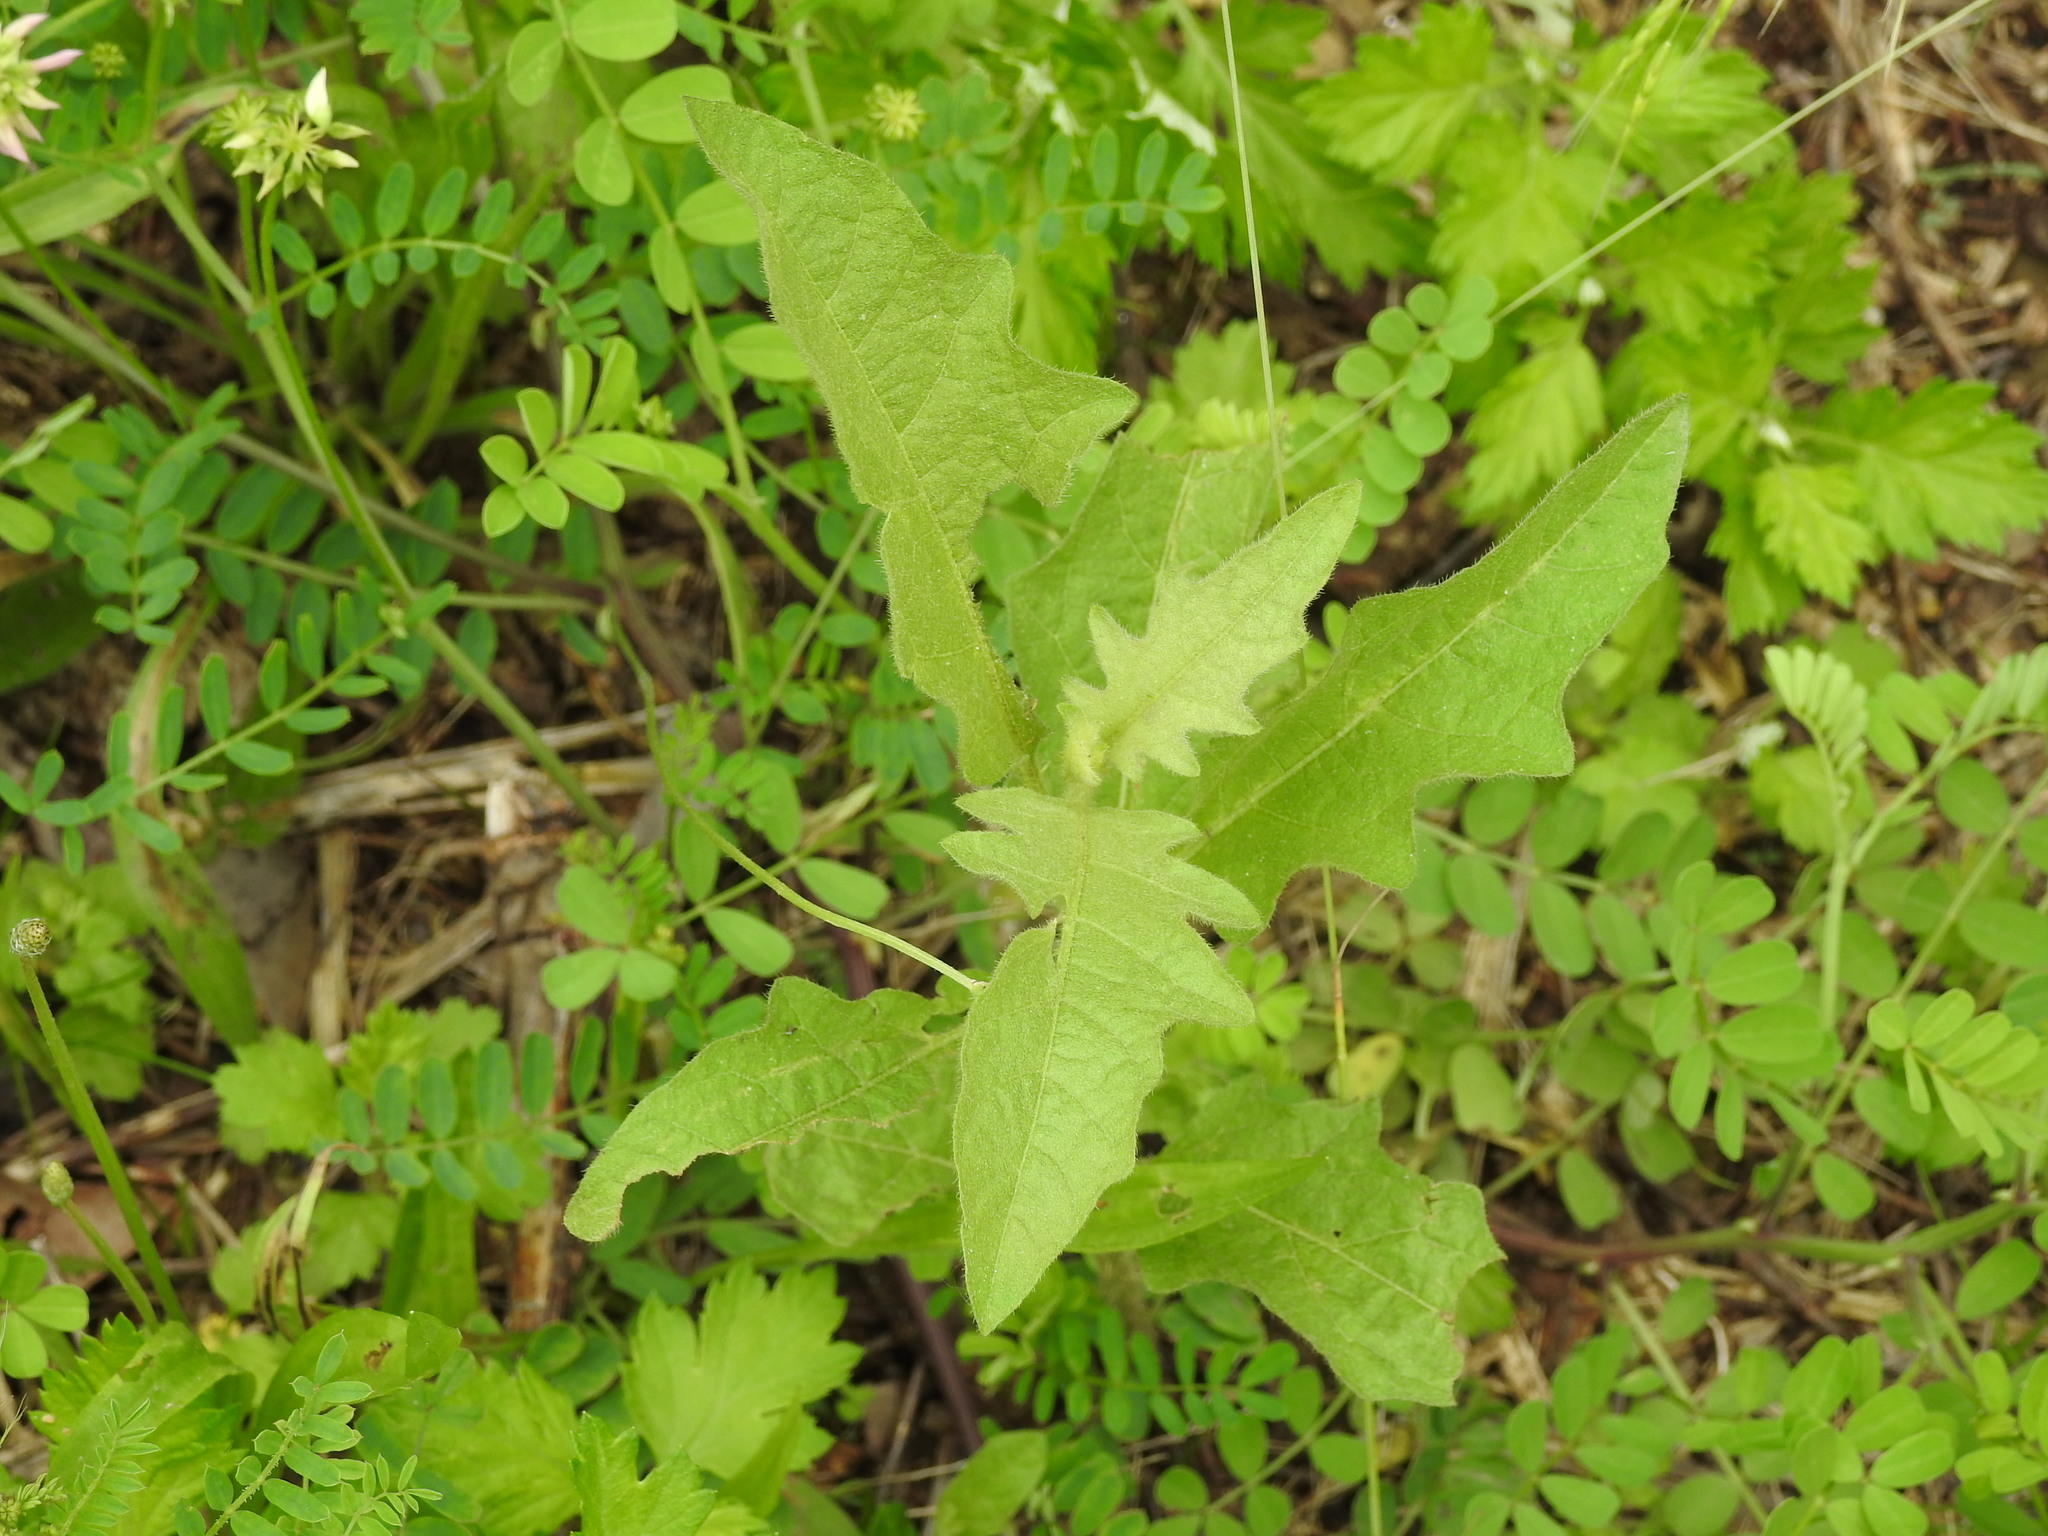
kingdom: Plantae
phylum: Tracheophyta
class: Magnoliopsida
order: Solanales
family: Solanaceae
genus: Solanum
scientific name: Solanum carolinense
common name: Horse-nettle
